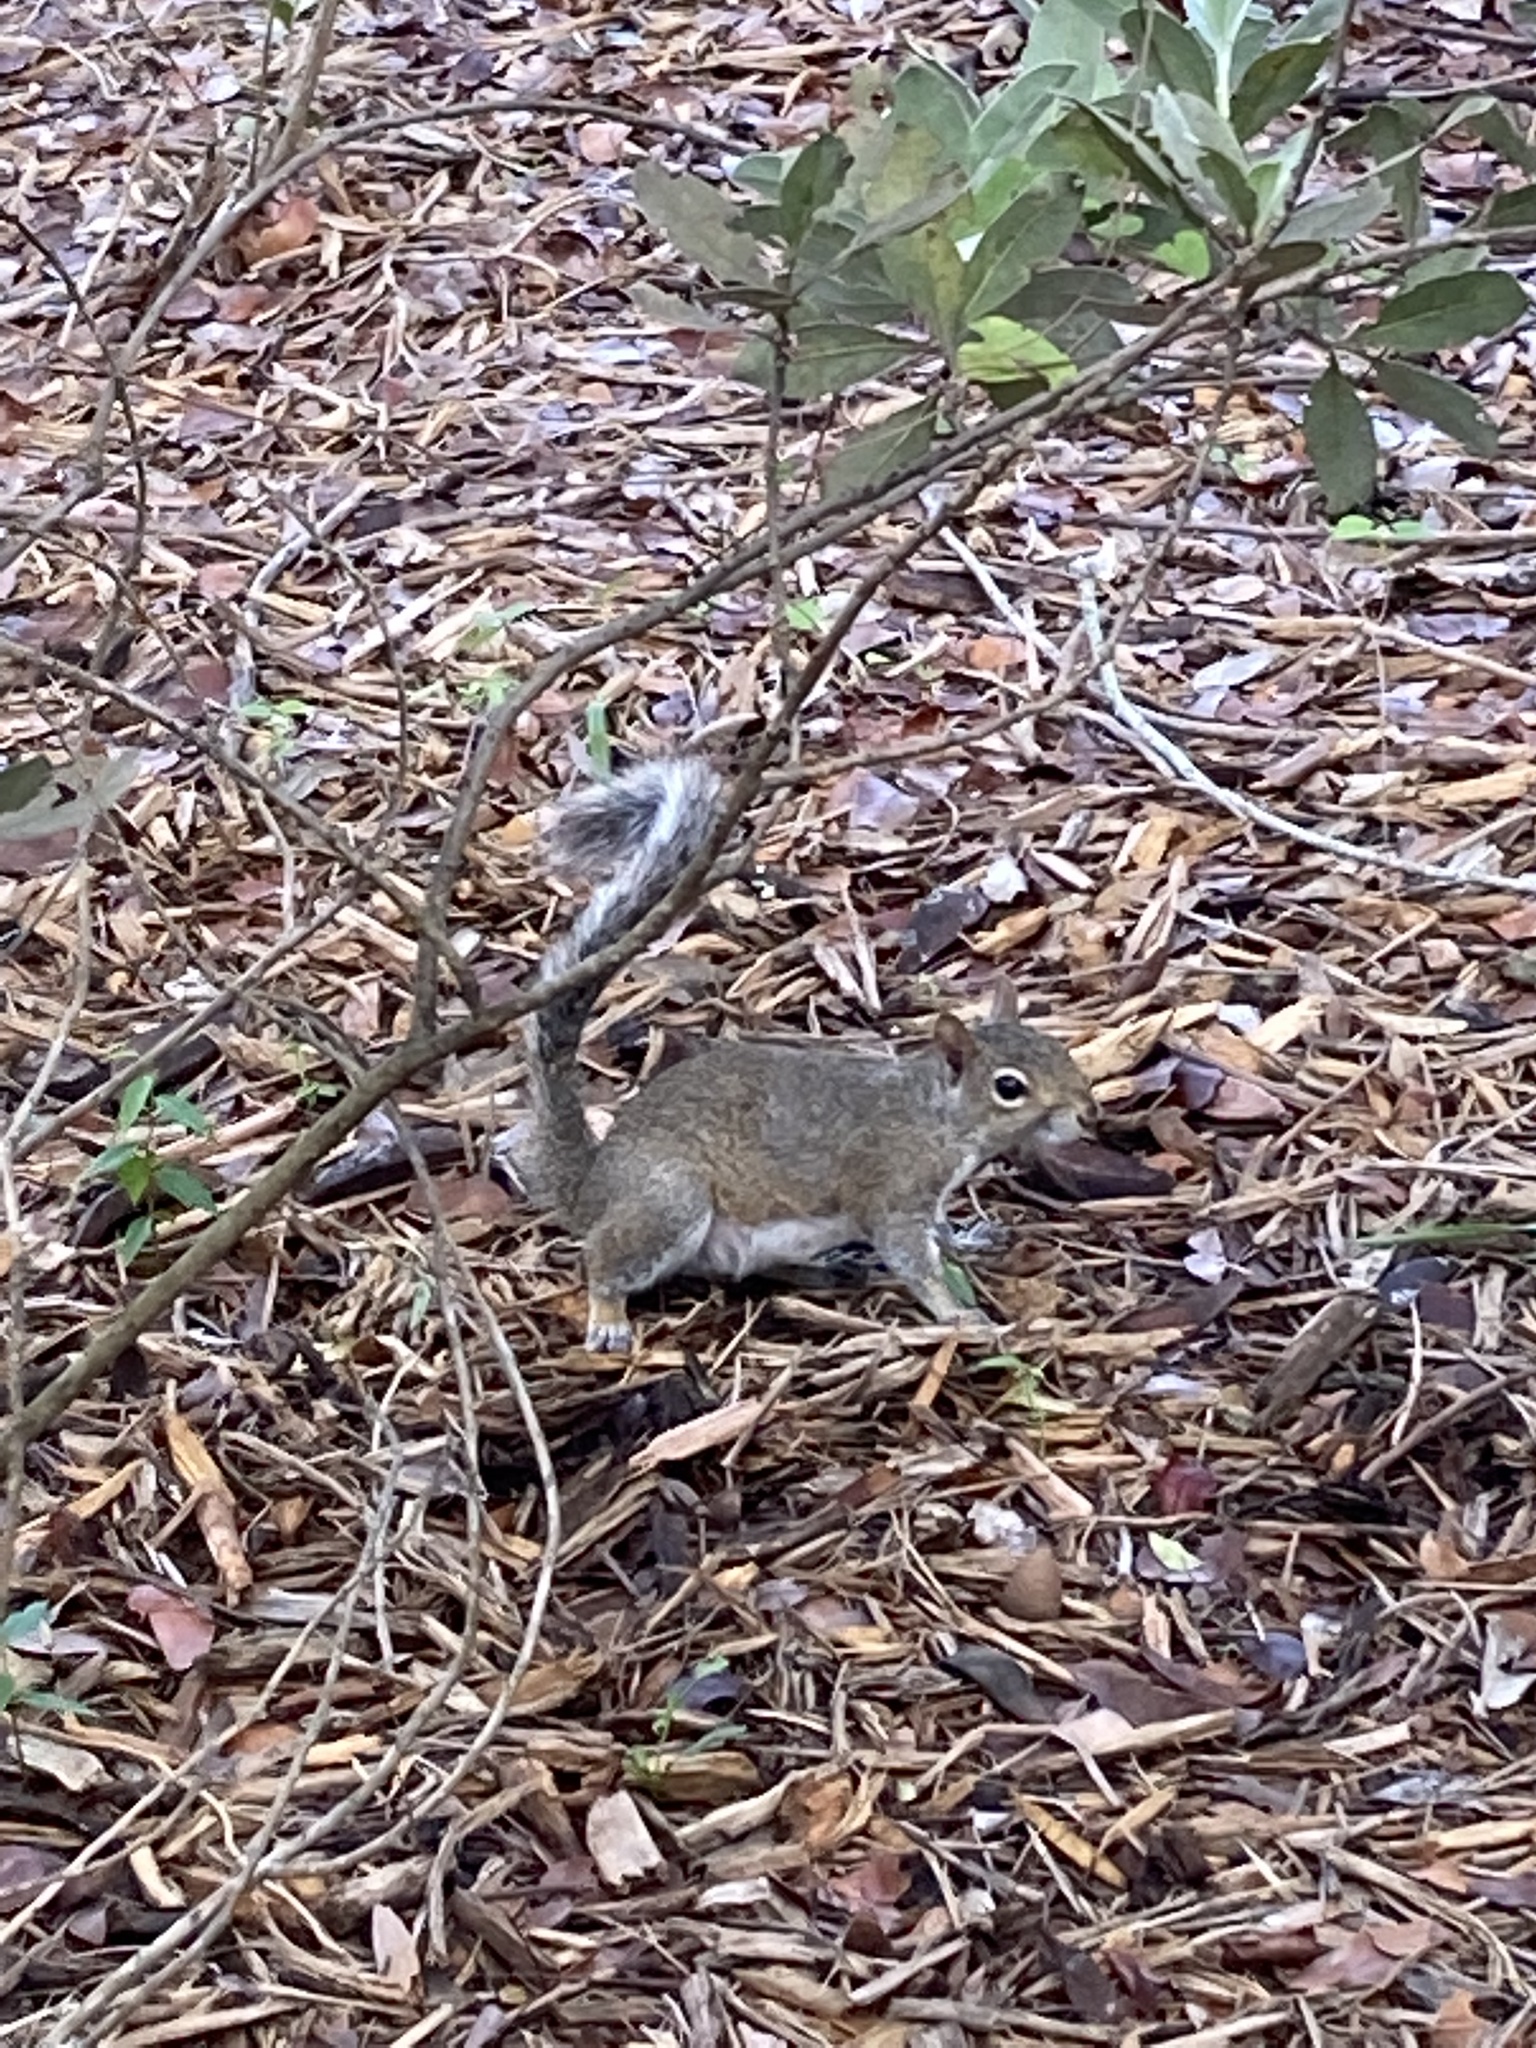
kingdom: Animalia
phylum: Chordata
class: Mammalia
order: Rodentia
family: Sciuridae
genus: Sciurus
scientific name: Sciurus carolinensis
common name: Eastern gray squirrel
